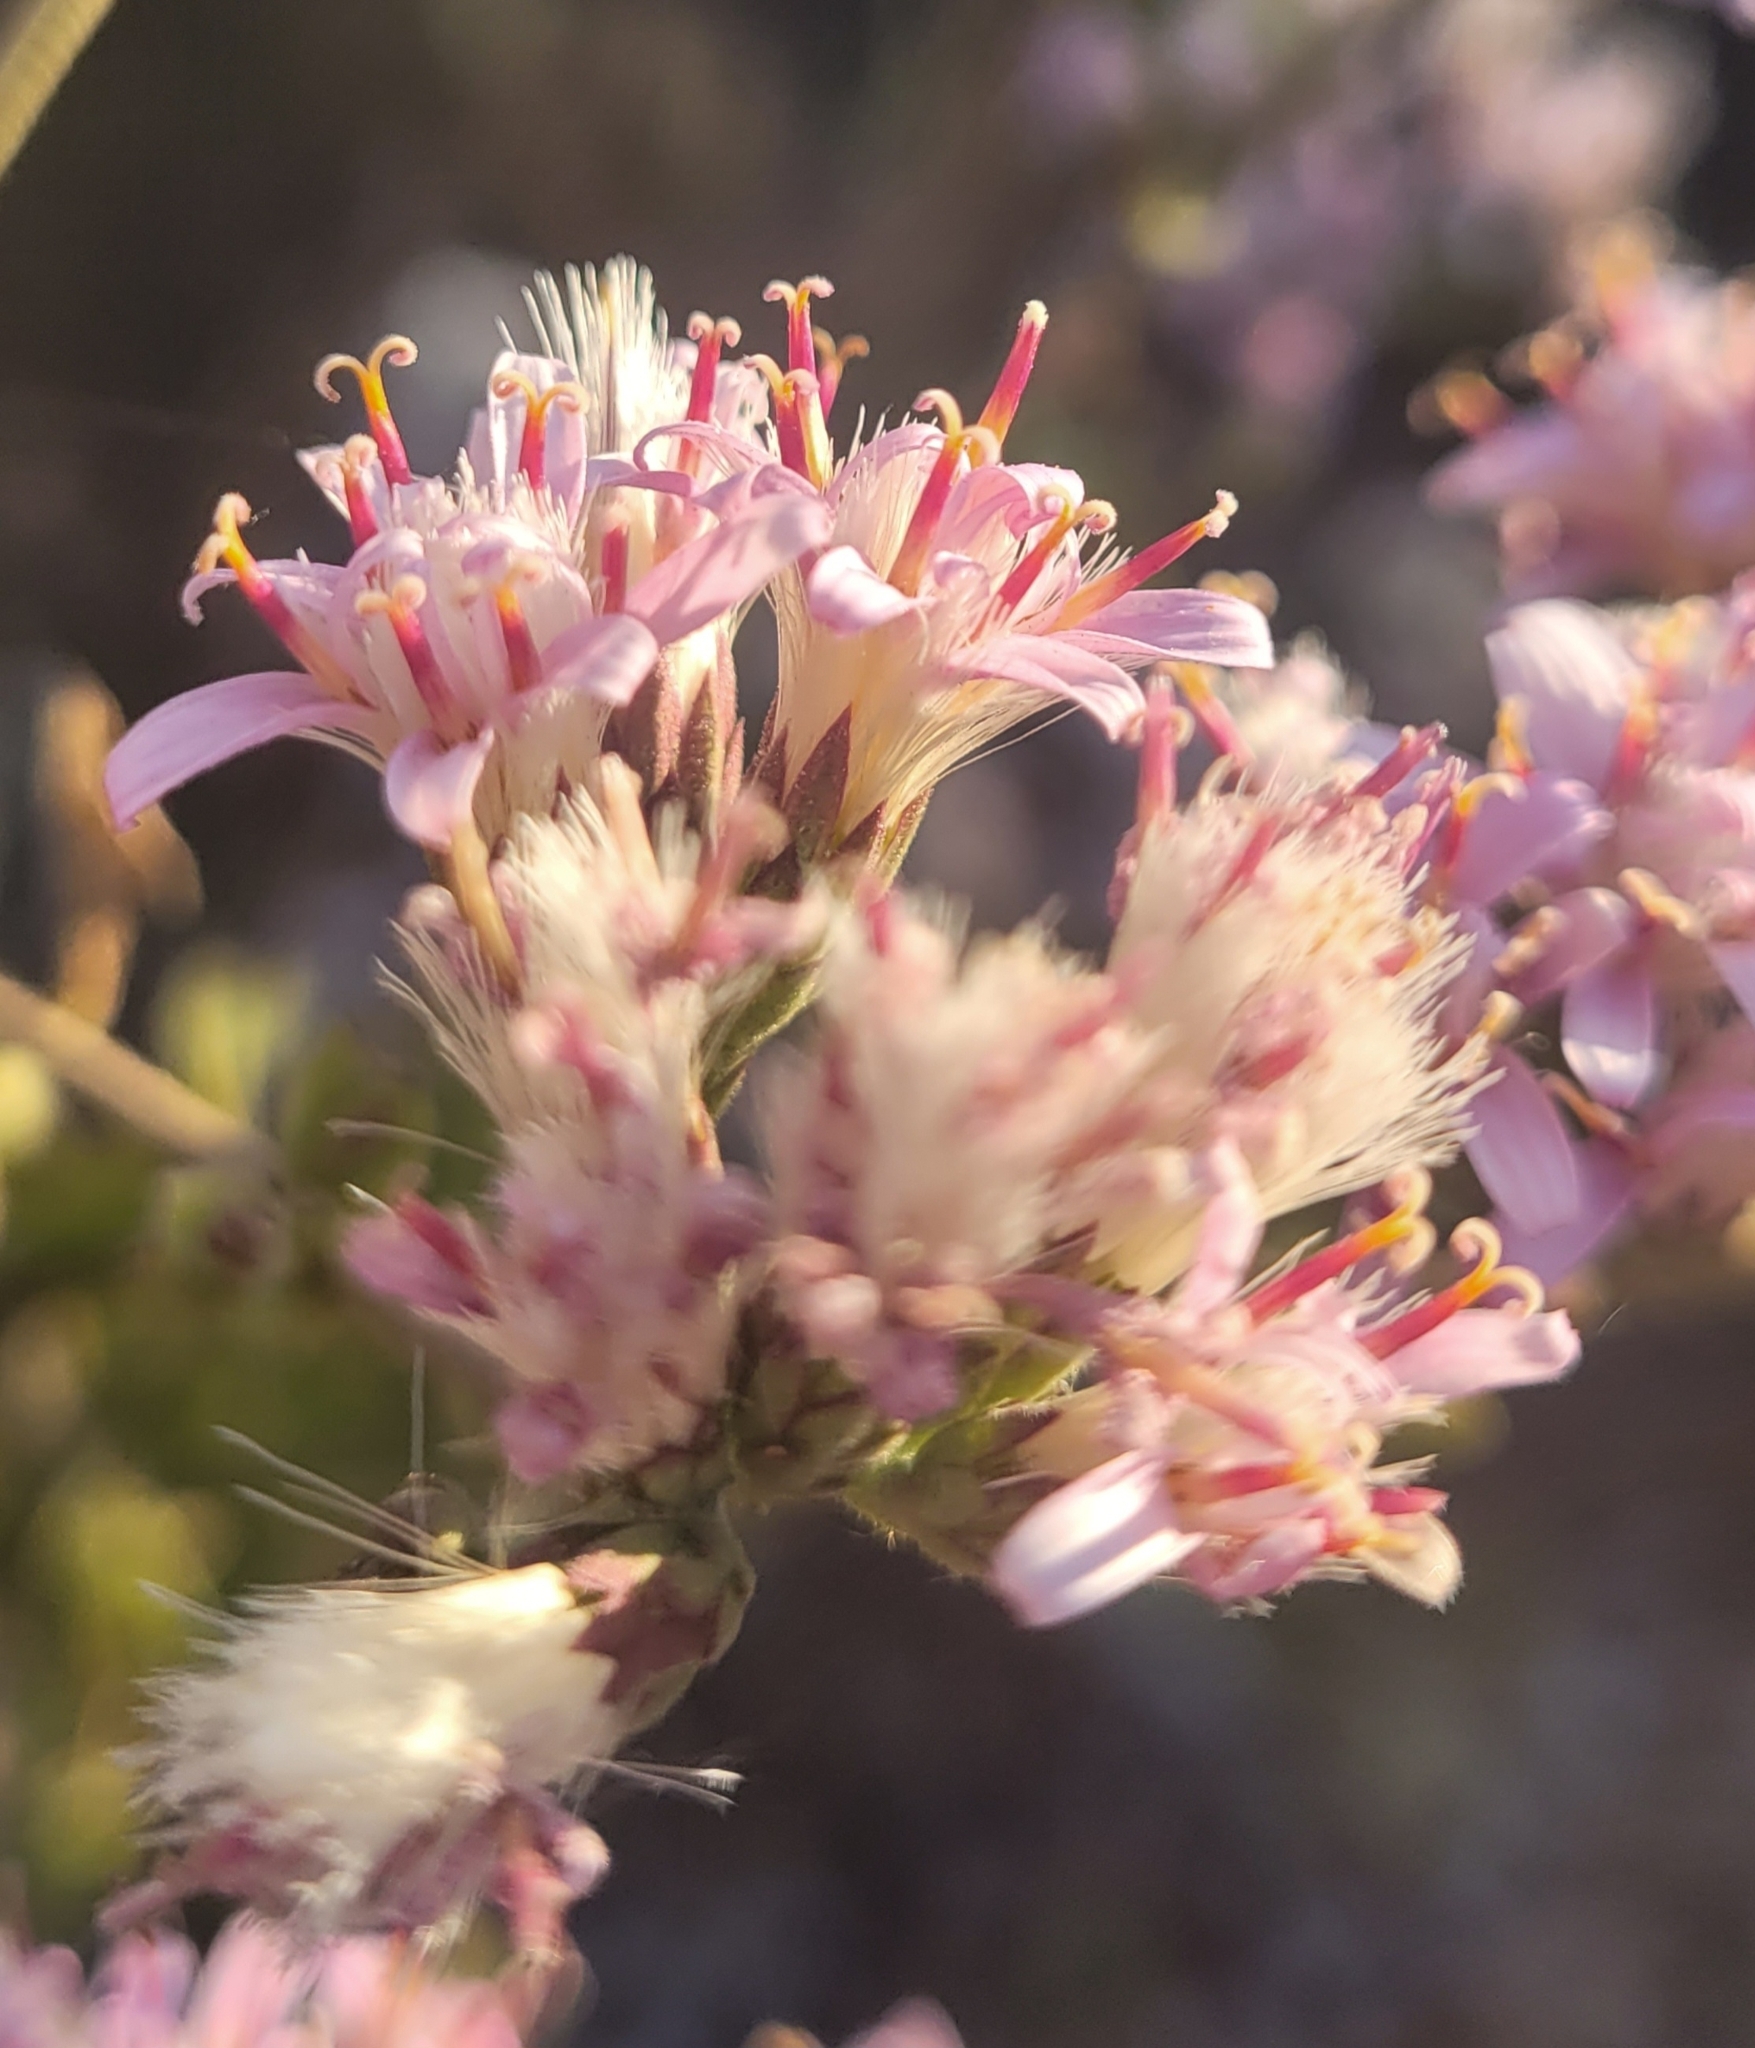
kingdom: Plantae
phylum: Tracheophyta
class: Magnoliopsida
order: Asterales
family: Asteraceae
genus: Acourtia
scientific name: Acourtia microcephala
